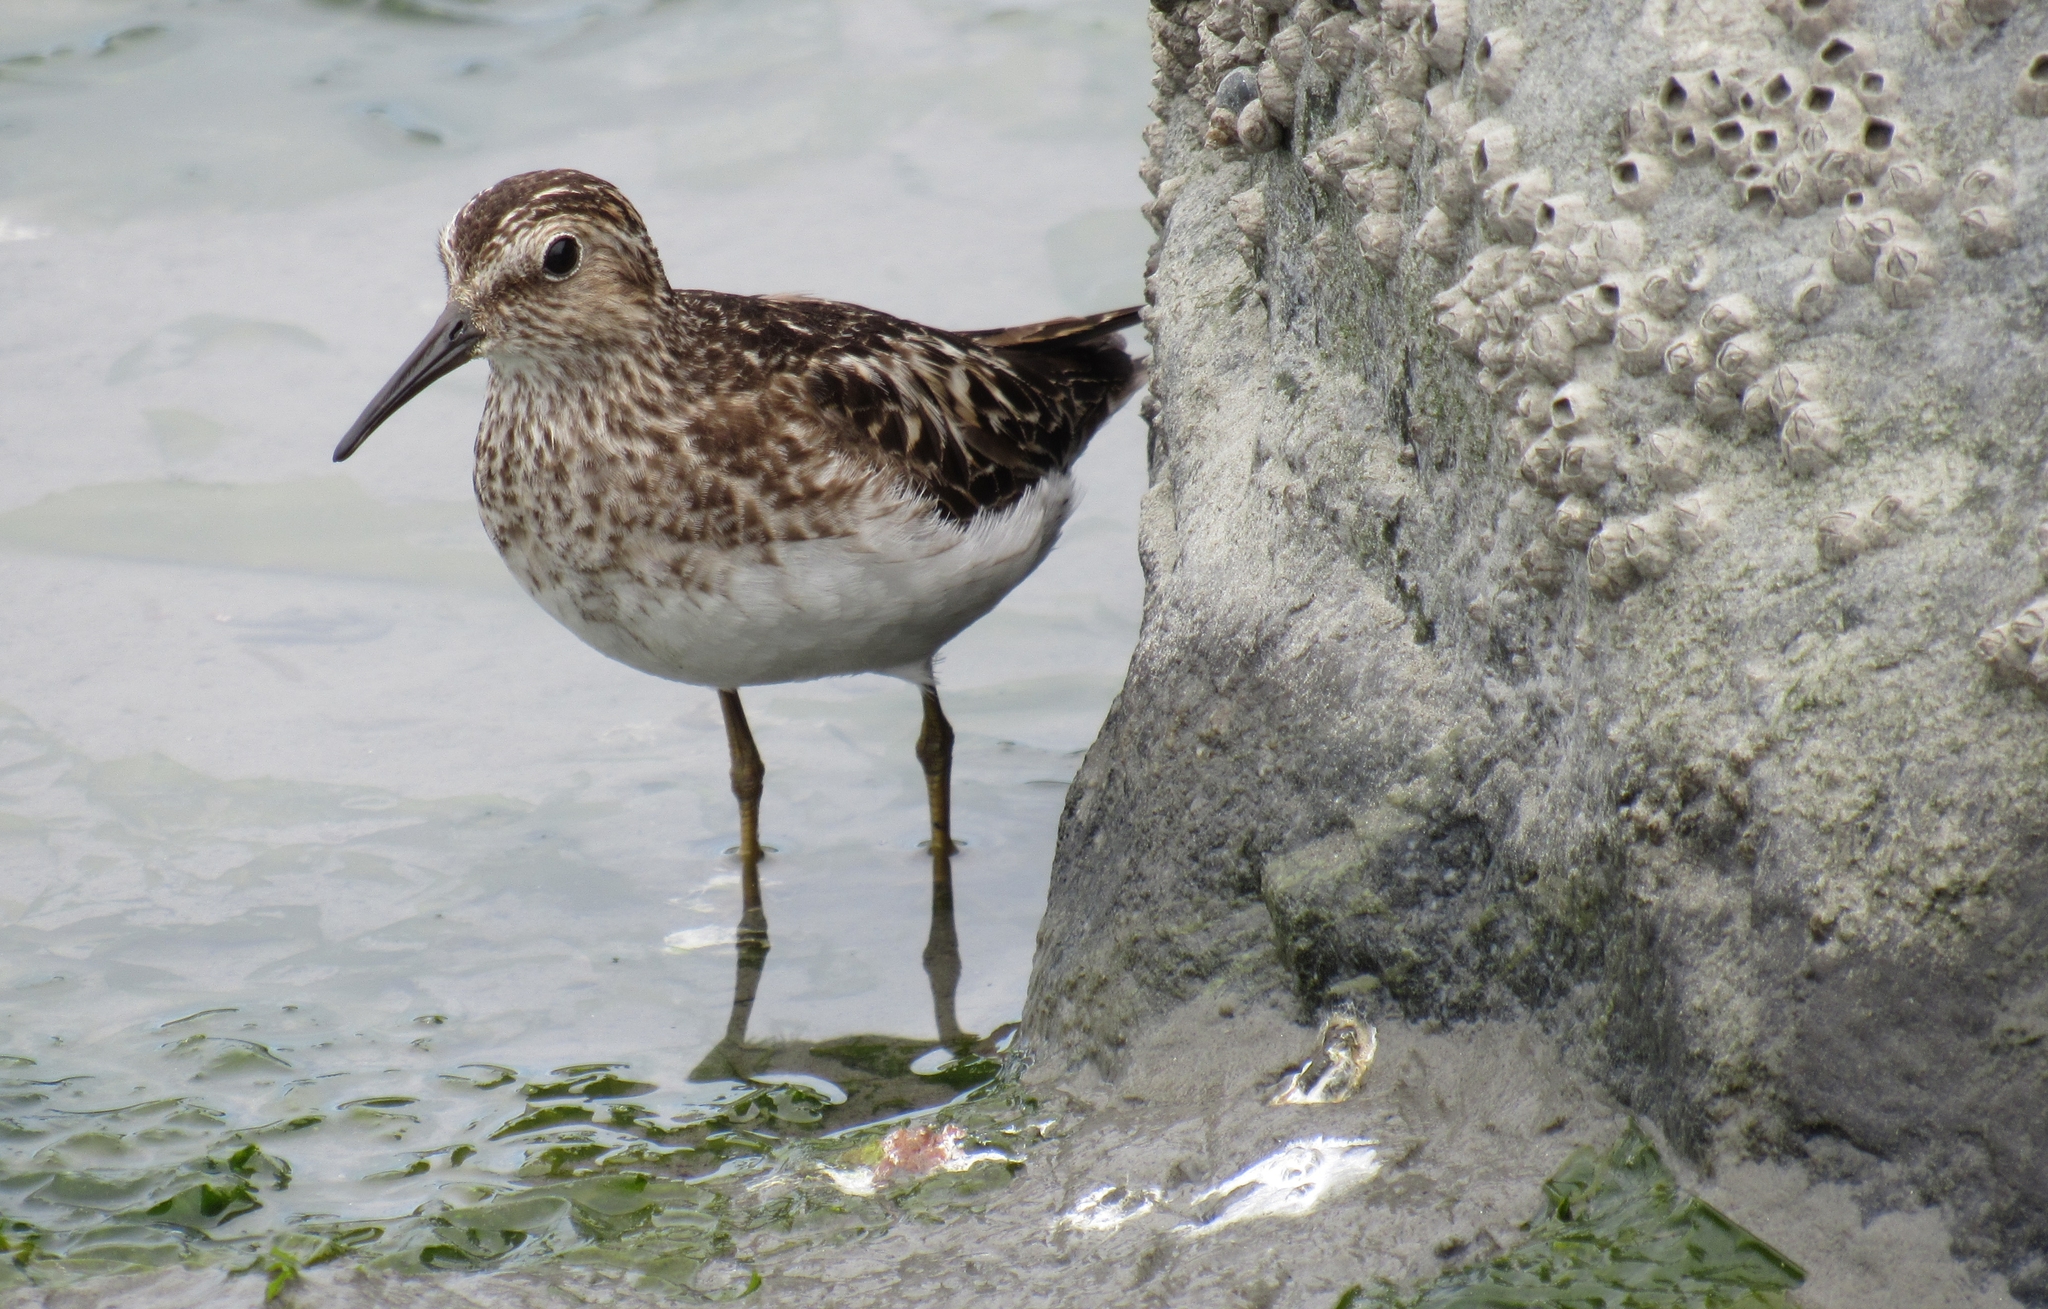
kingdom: Animalia
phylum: Chordata
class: Aves
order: Charadriiformes
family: Scolopacidae
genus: Calidris
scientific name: Calidris minutilla
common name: Least sandpiper
